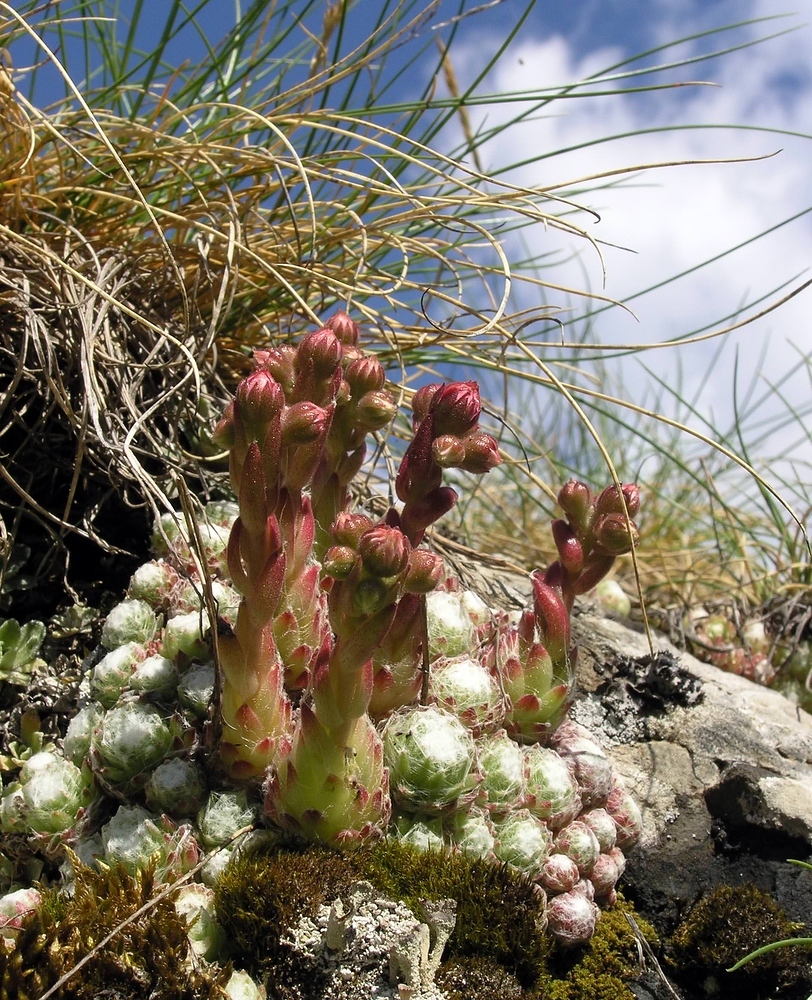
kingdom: Plantae
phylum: Tracheophyta
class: Magnoliopsida
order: Saxifragales
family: Crassulaceae
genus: Sempervivum
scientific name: Sempervivum arachnoideum
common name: Cobweb house-leek
